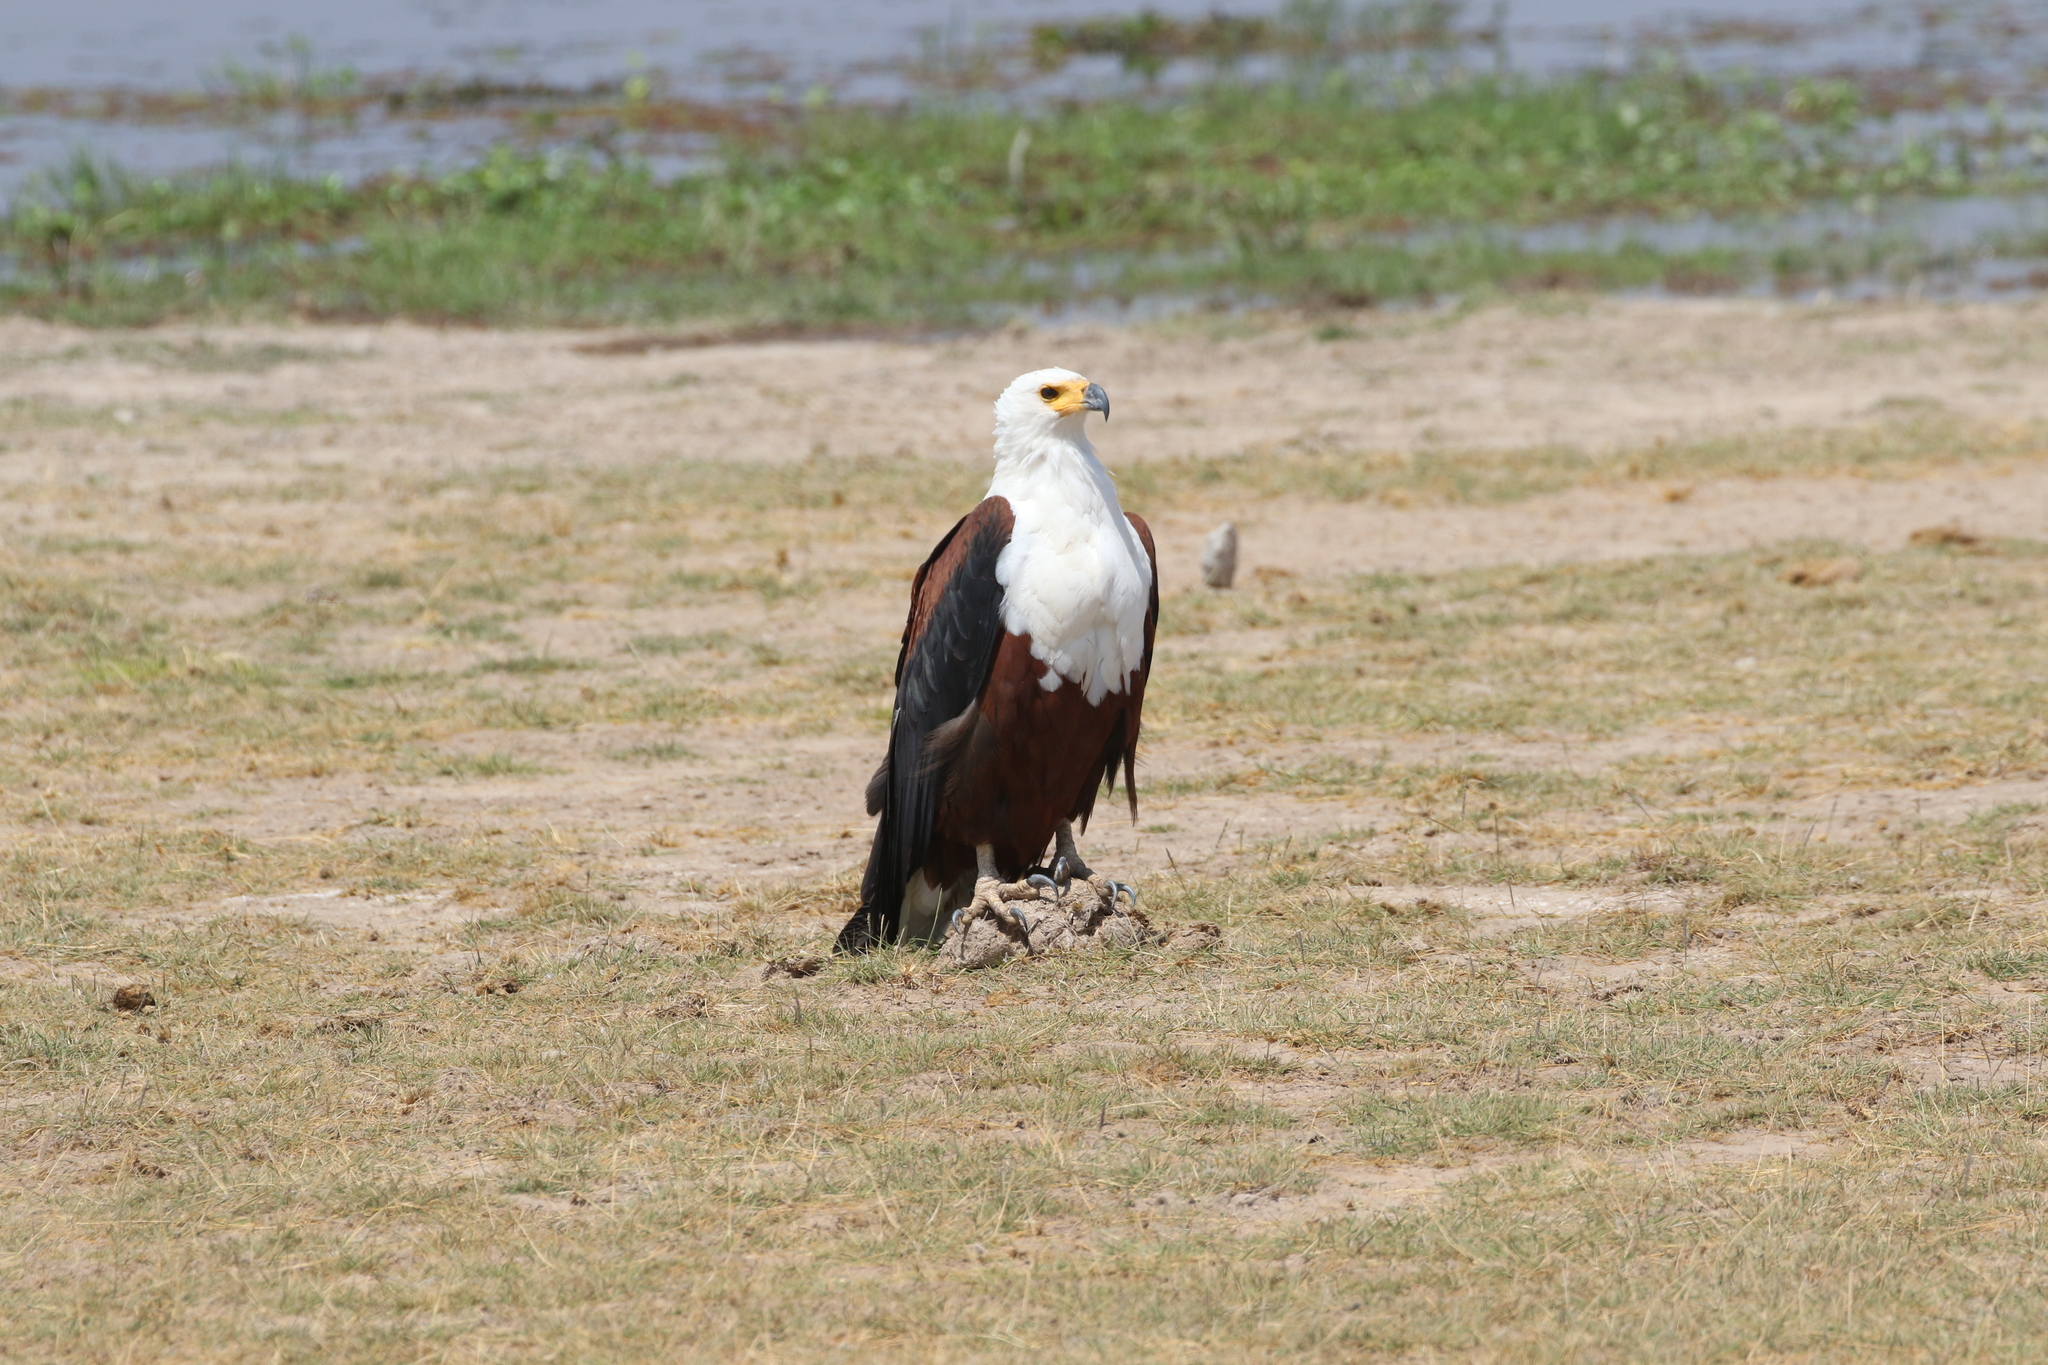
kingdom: Animalia
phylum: Chordata
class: Aves
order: Accipitriformes
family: Accipitridae
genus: Haliaeetus
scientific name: Haliaeetus vocifer
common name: African fish eagle
